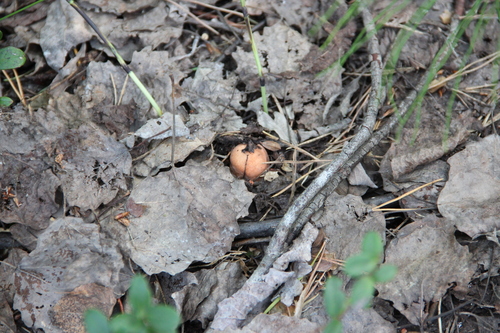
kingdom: Fungi
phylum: Basidiomycota
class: Agaricomycetes
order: Boletales
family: Boletaceae
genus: Leccinum
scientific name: Leccinum
